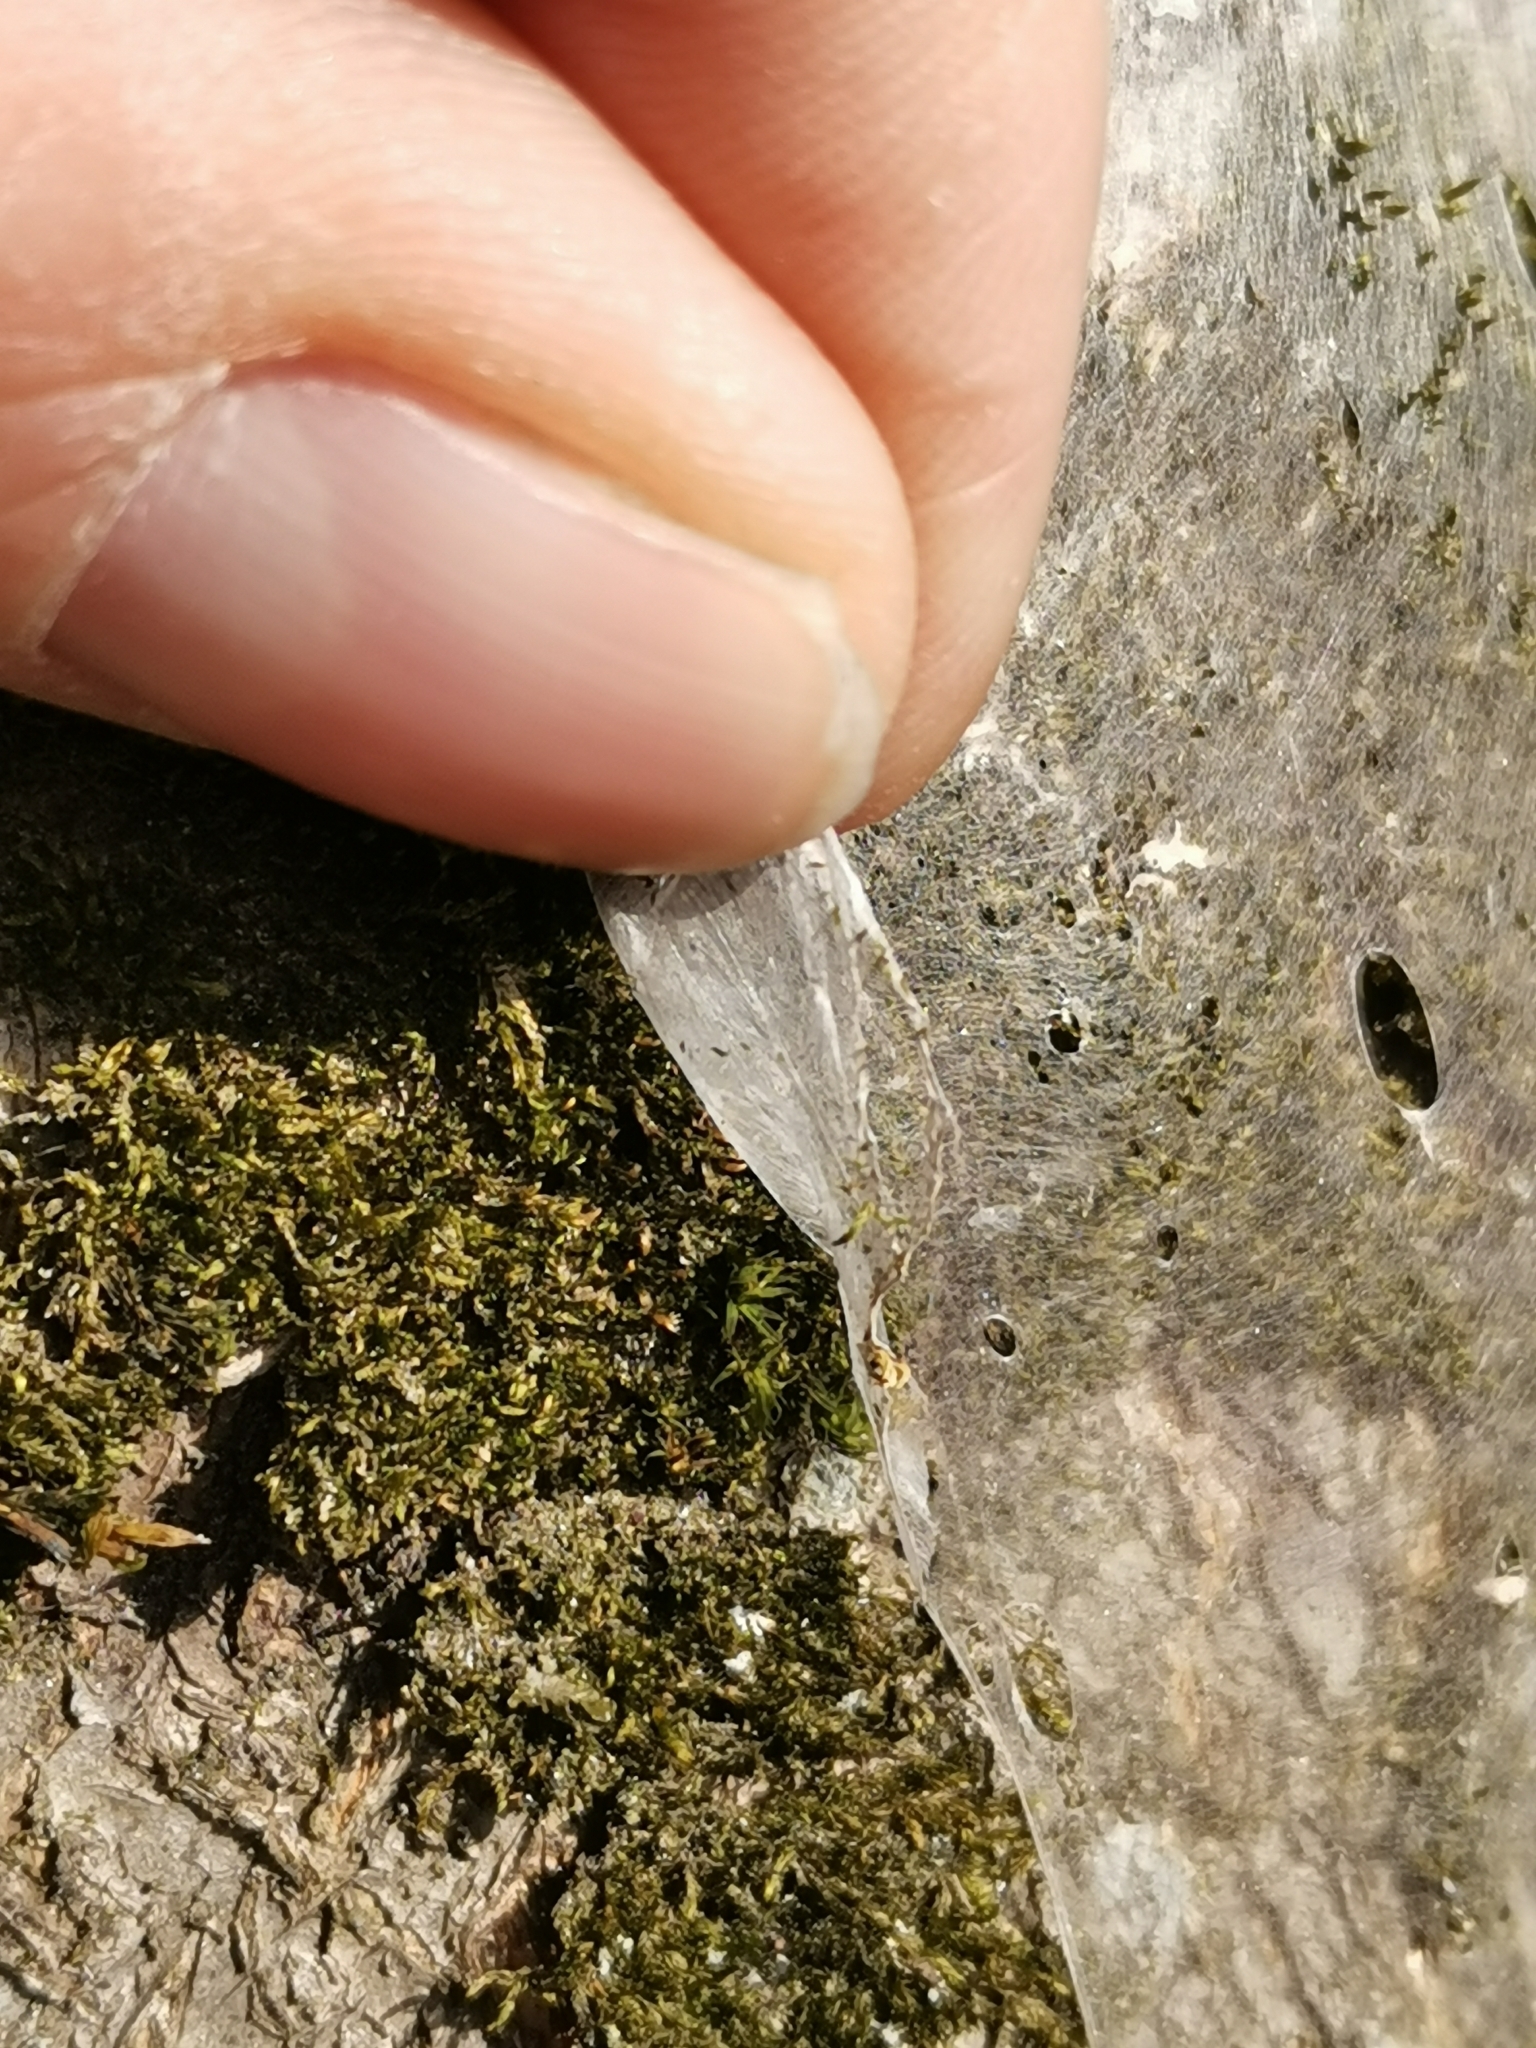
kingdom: Animalia
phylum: Arthropoda
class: Insecta
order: Lepidoptera
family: Yponomeutidae
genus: Yponomeuta
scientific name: Yponomeuta evonymella
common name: Bird-cherry ermine
